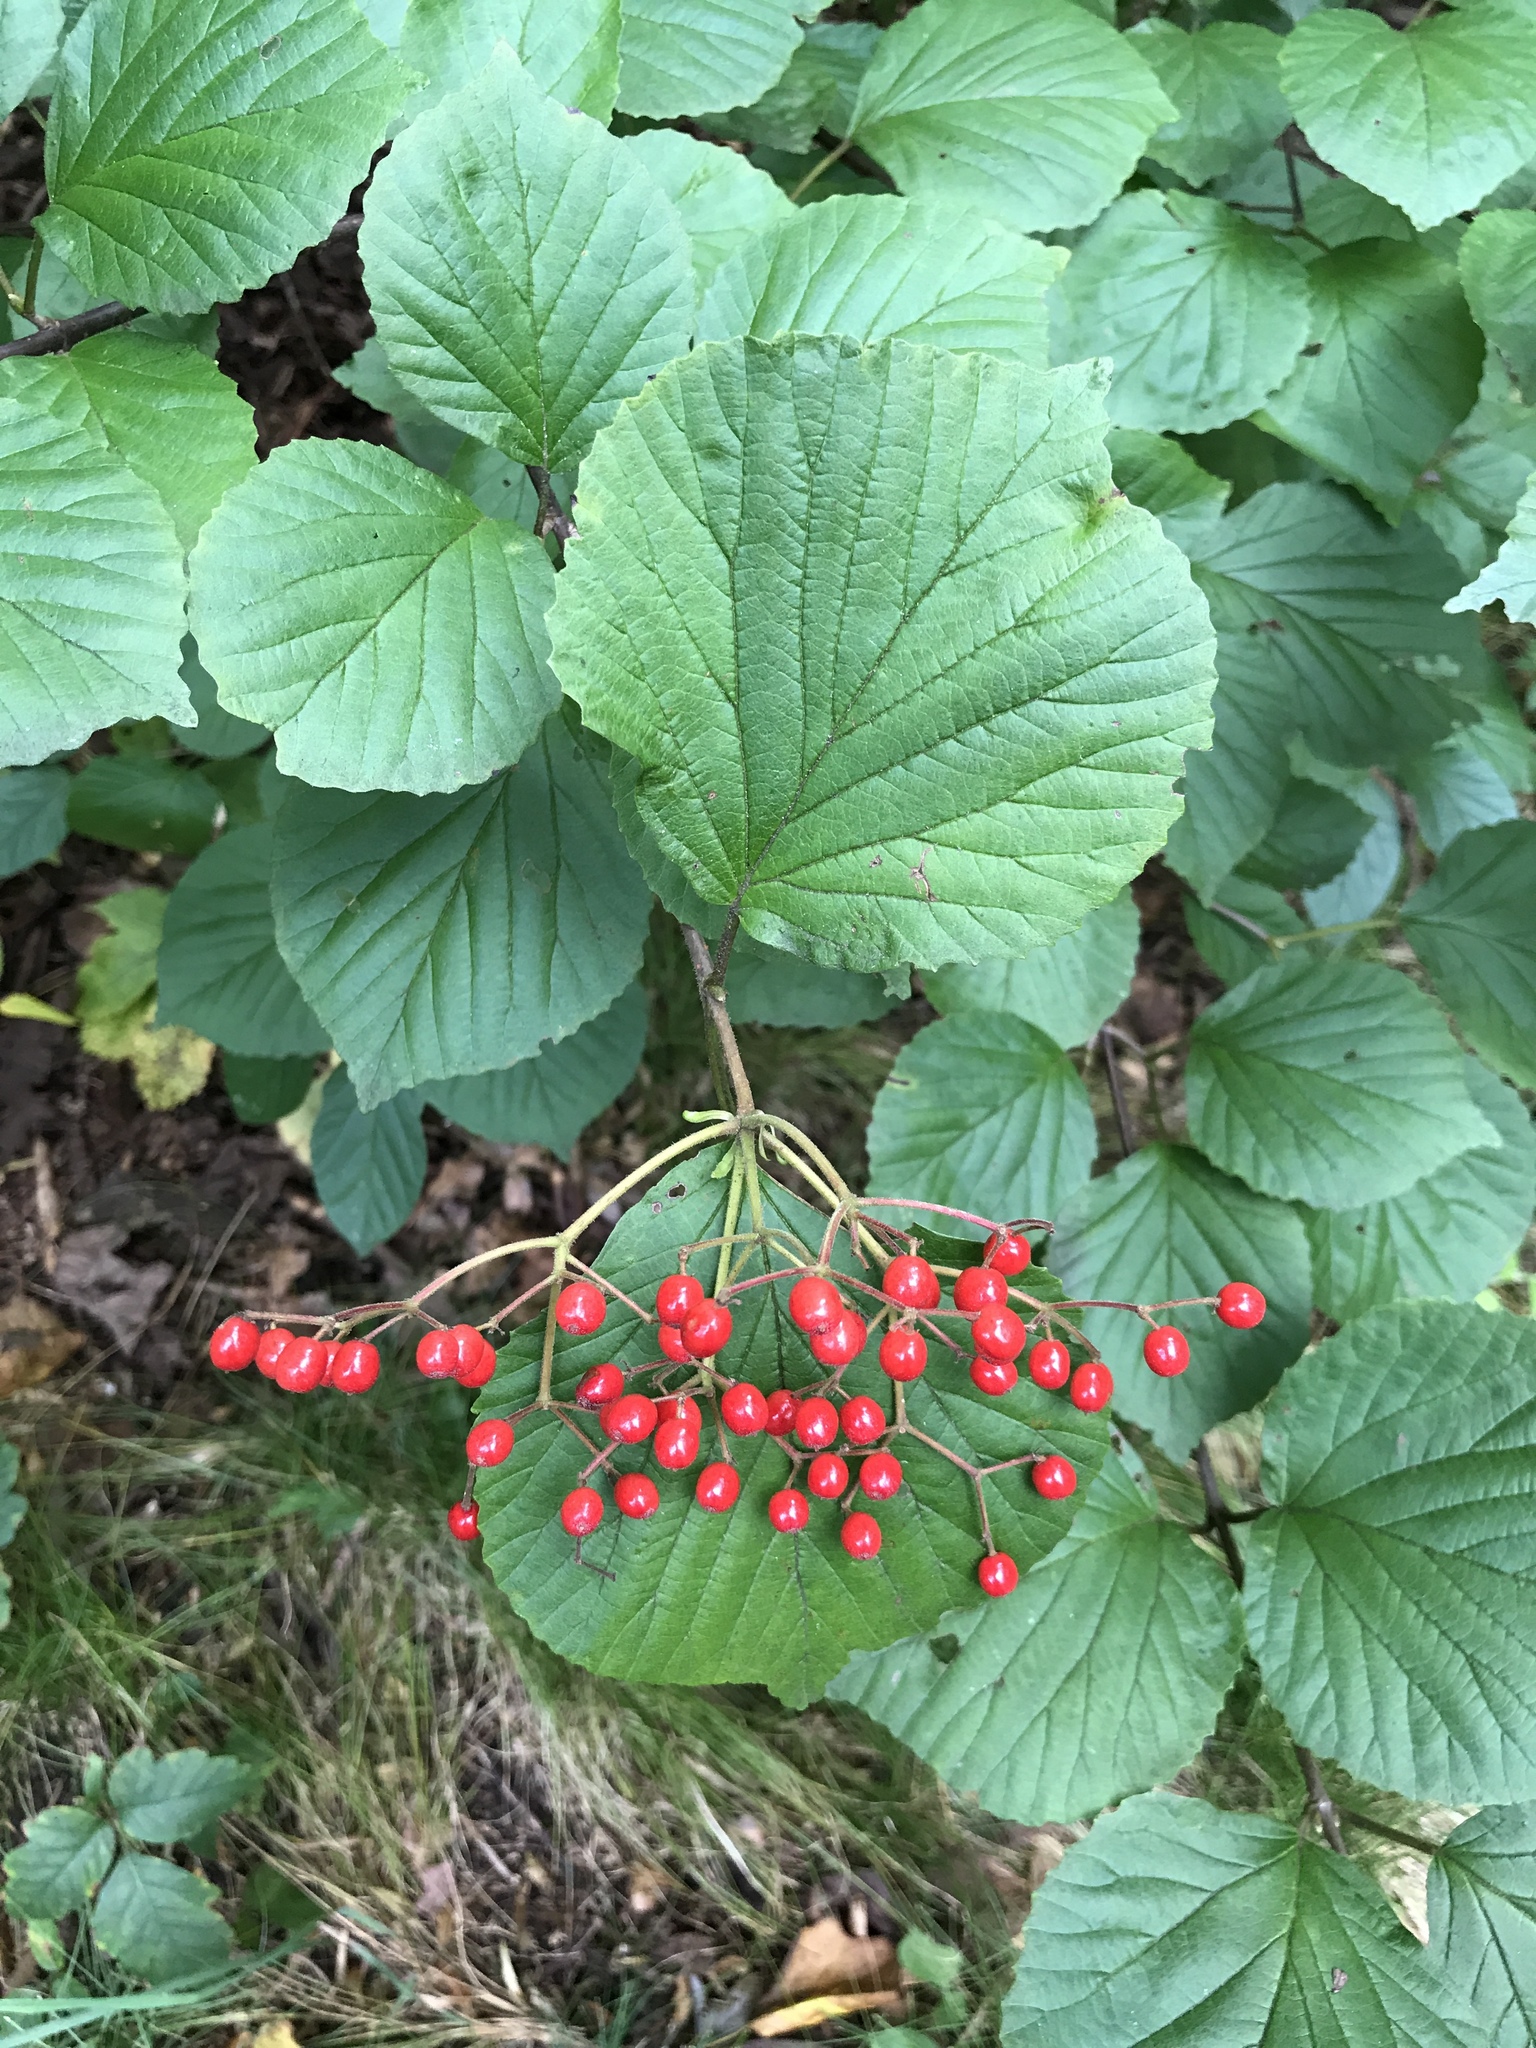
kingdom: Plantae
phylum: Tracheophyta
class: Magnoliopsida
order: Dipsacales
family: Viburnaceae
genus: Viburnum
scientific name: Viburnum dilatatum
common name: Linden arrowwood
